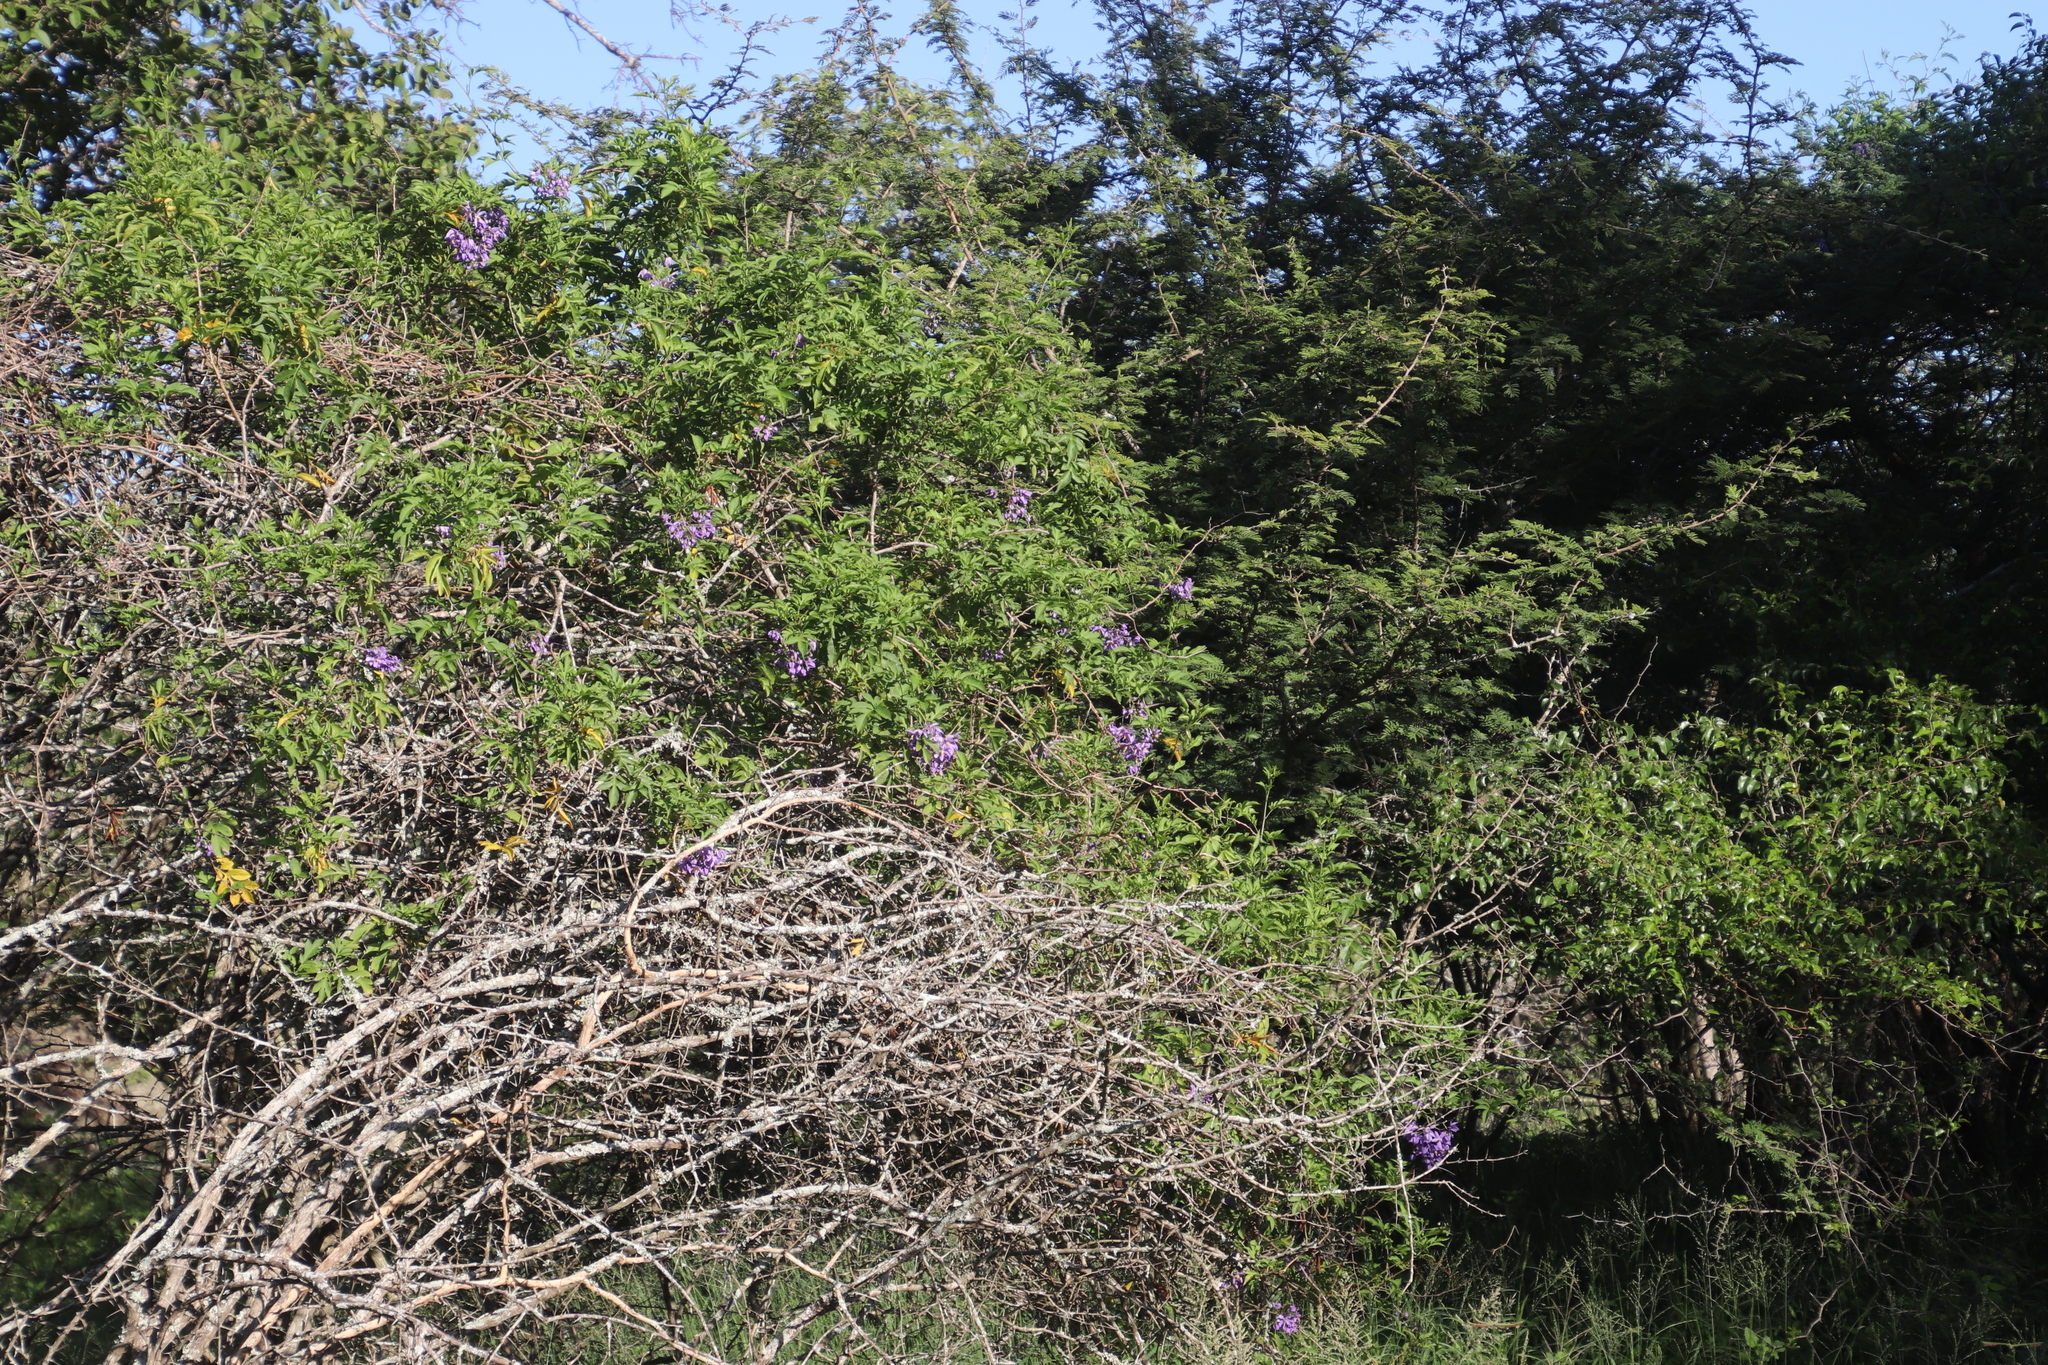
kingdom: Plantae
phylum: Tracheophyta
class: Magnoliopsida
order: Solanales
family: Solanaceae
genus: Solanum
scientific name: Solanum seaforthianum
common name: Brazilian nightshade
